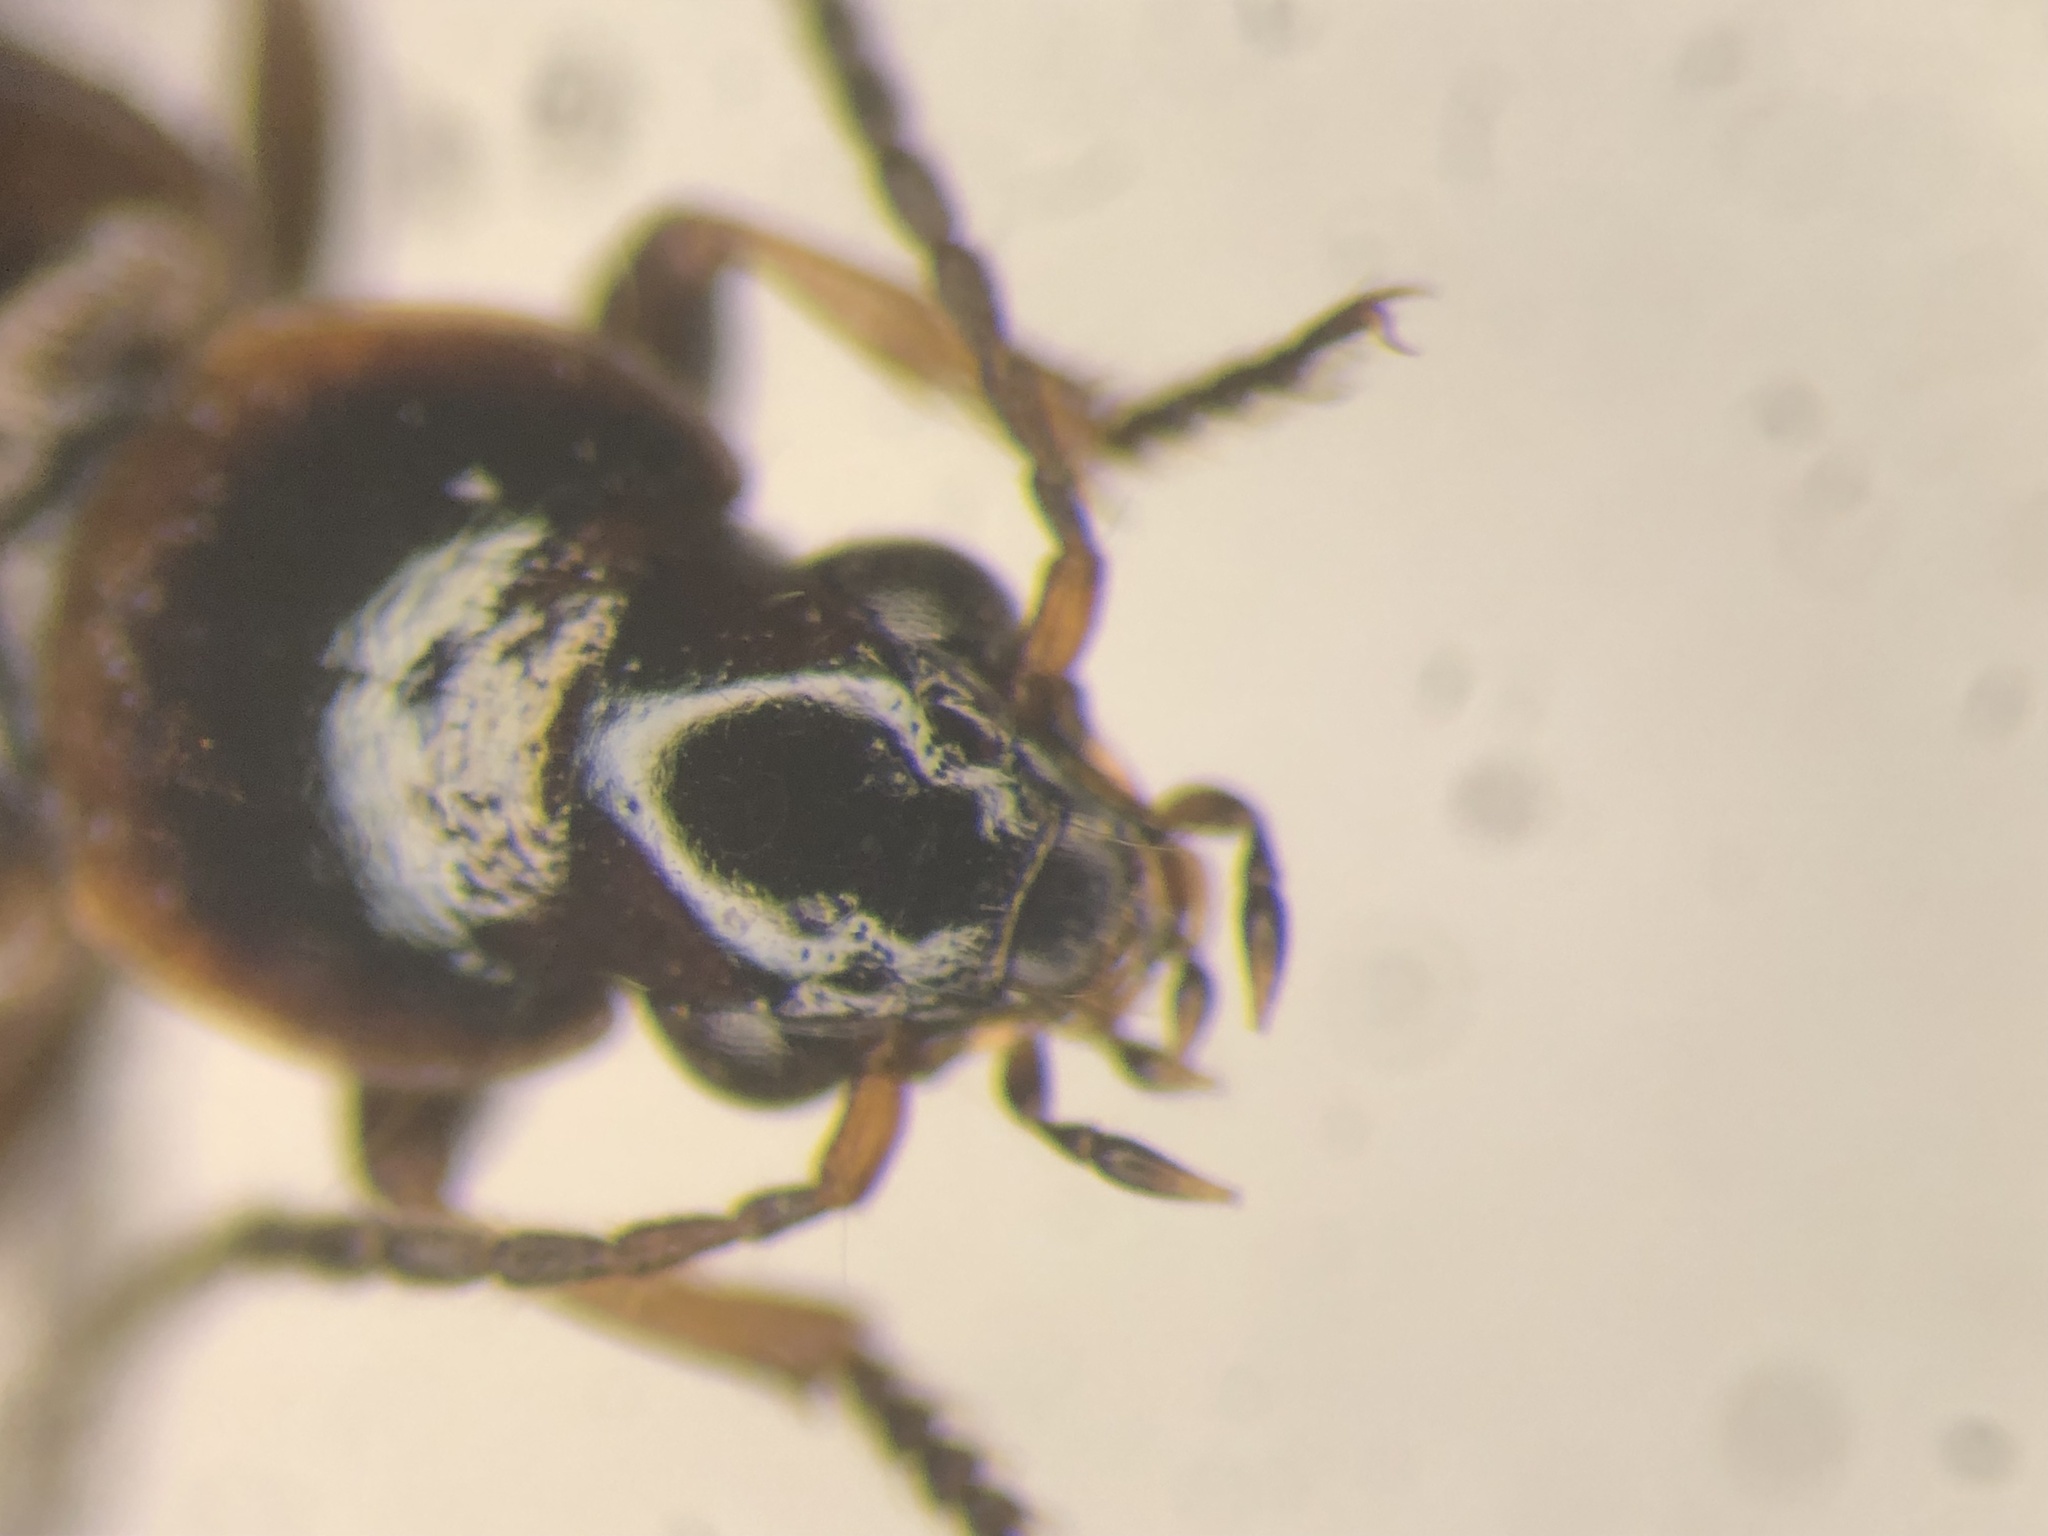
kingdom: Animalia
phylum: Arthropoda
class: Insecta
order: Coleoptera
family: Carabidae
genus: Dicheirotrichus
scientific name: Dicheirotrichus cognatus
